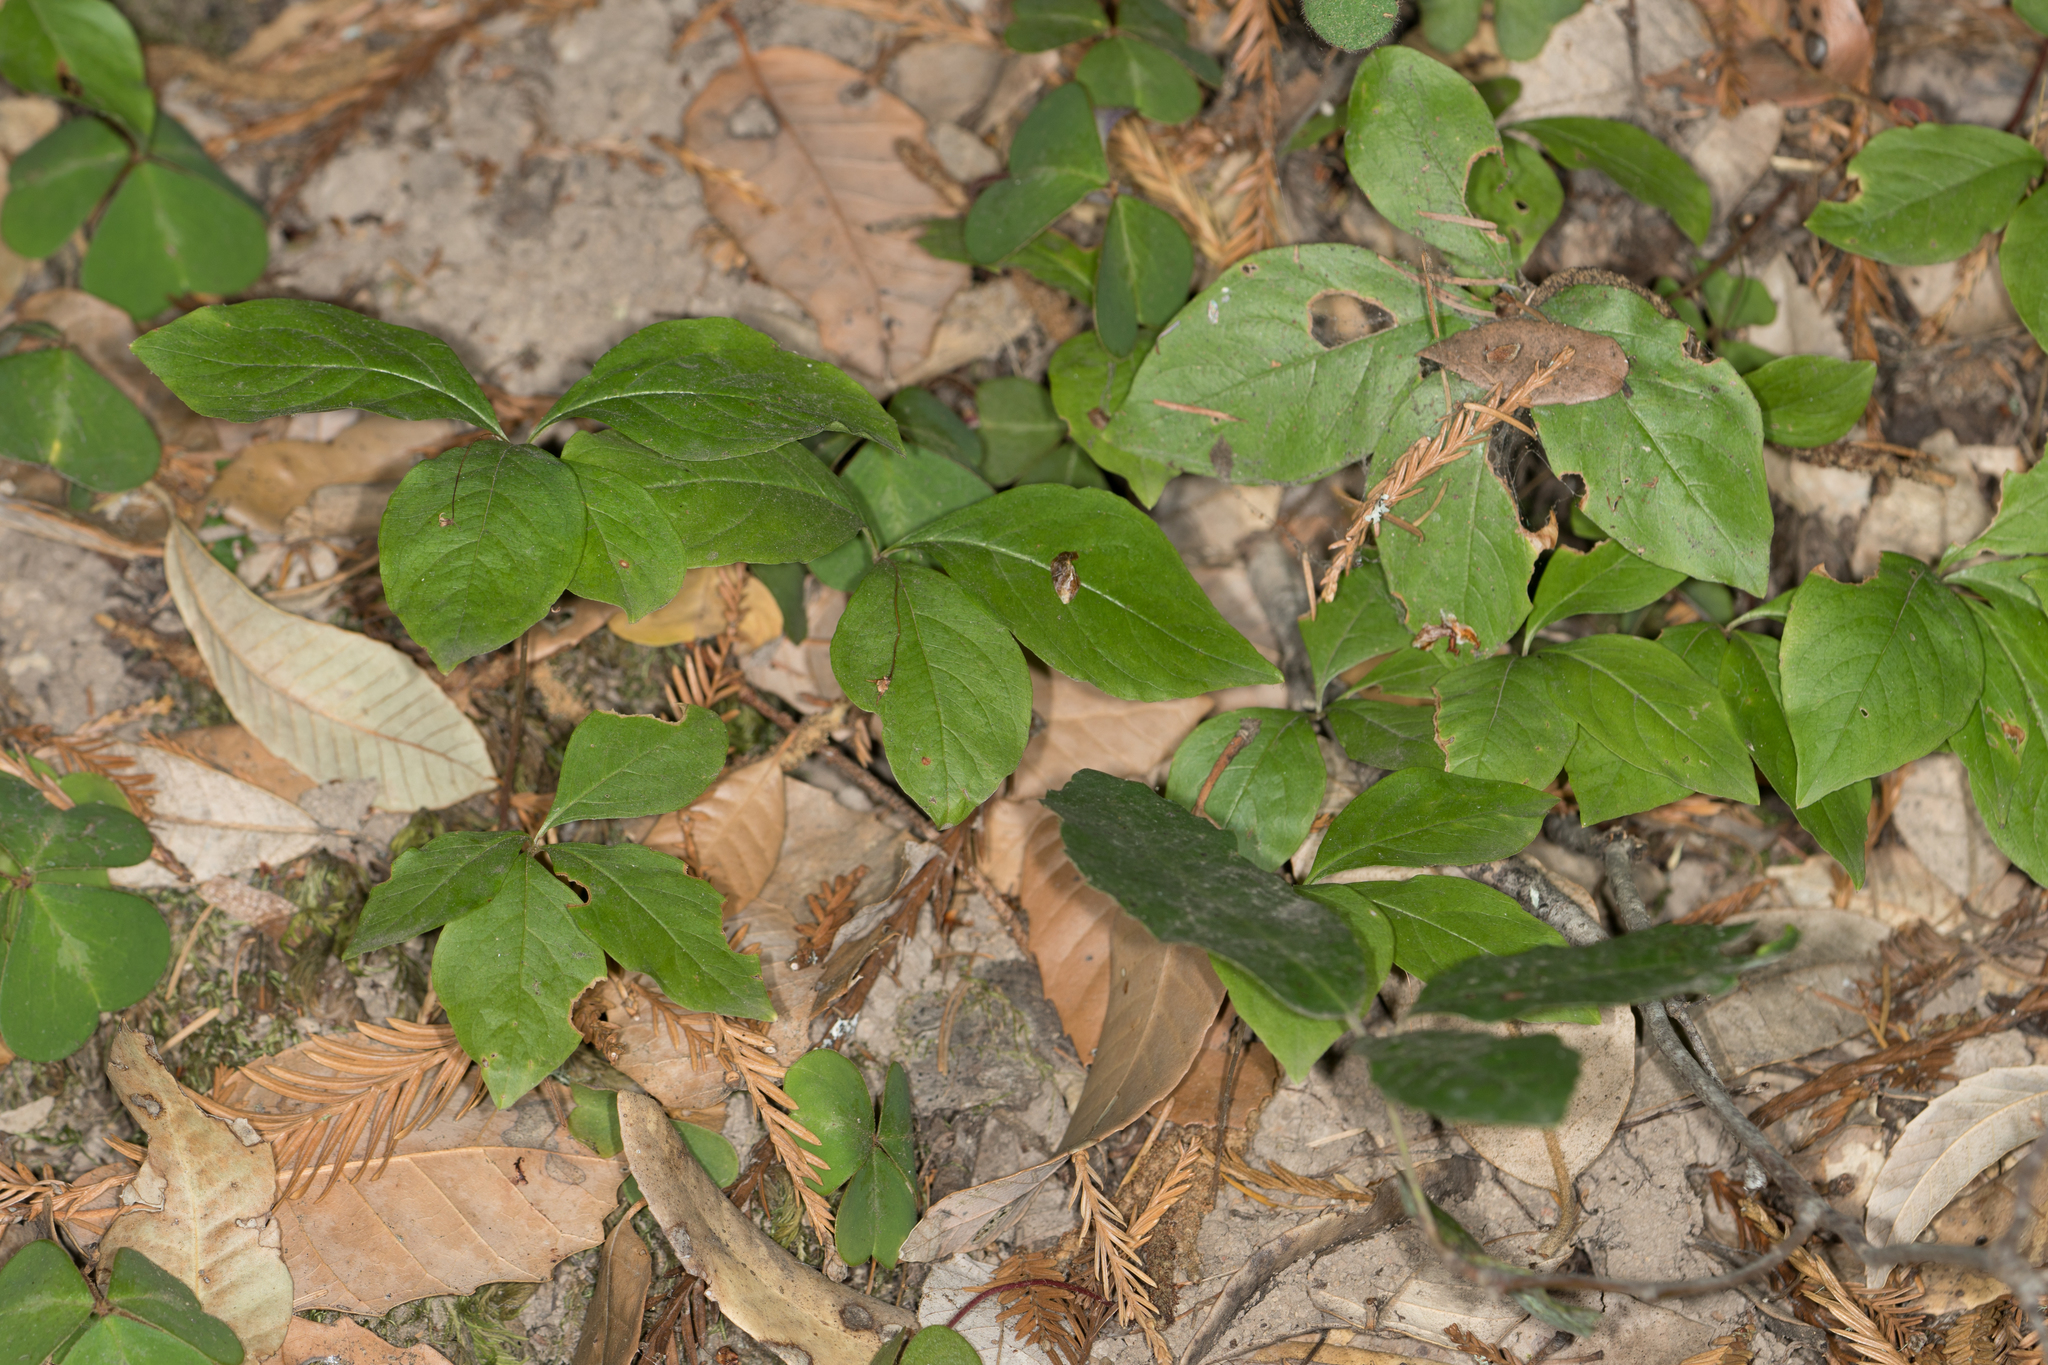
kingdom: Plantae
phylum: Tracheophyta
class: Magnoliopsida
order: Ericales
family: Primulaceae
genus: Lysimachia
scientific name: Lysimachia latifolia
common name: Pacific starflower
